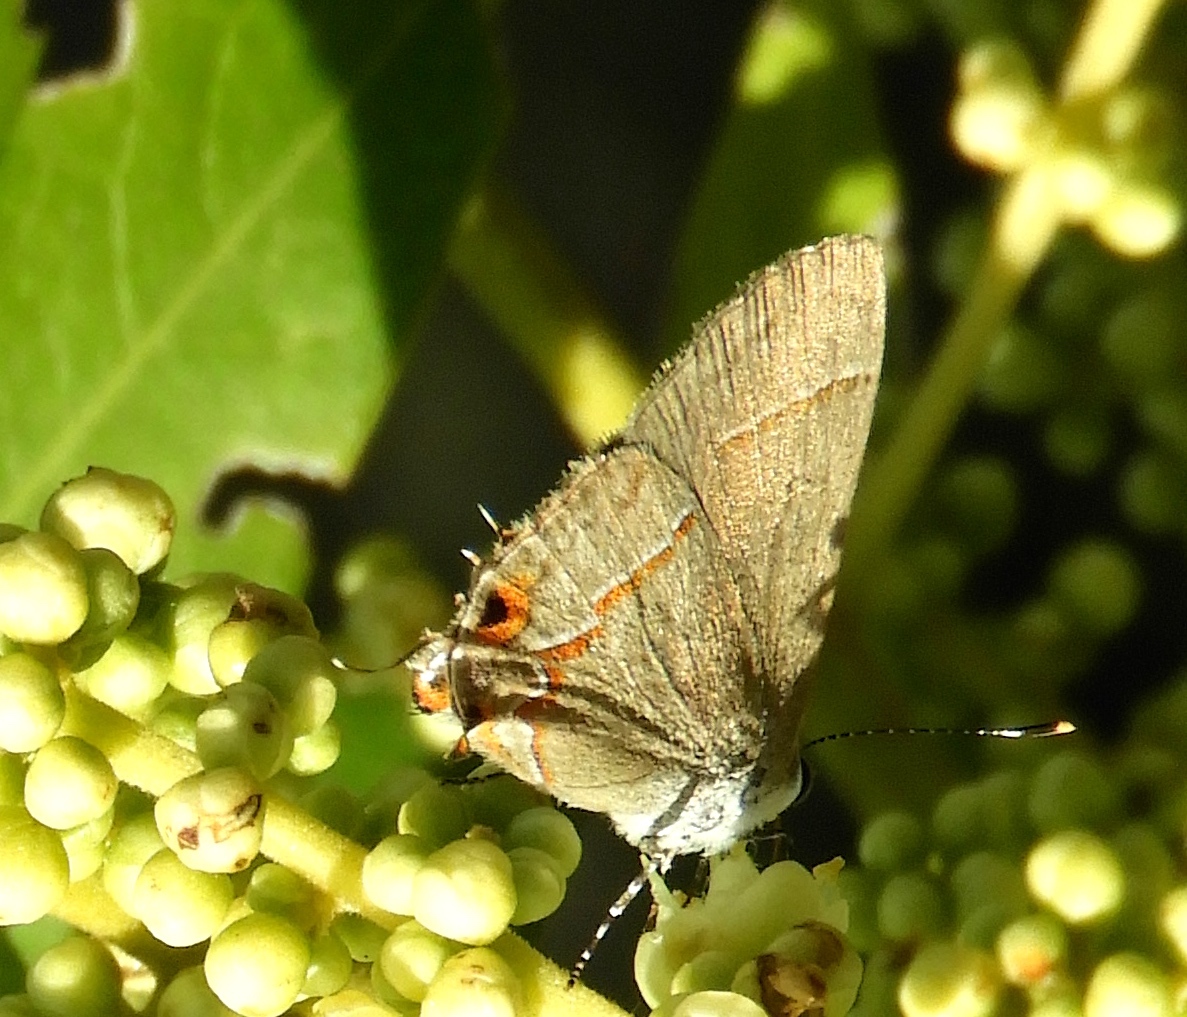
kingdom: Animalia
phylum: Arthropoda
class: Insecta
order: Lepidoptera
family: Lycaenidae
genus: Electrostrymon
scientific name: Electrostrymon endymion
